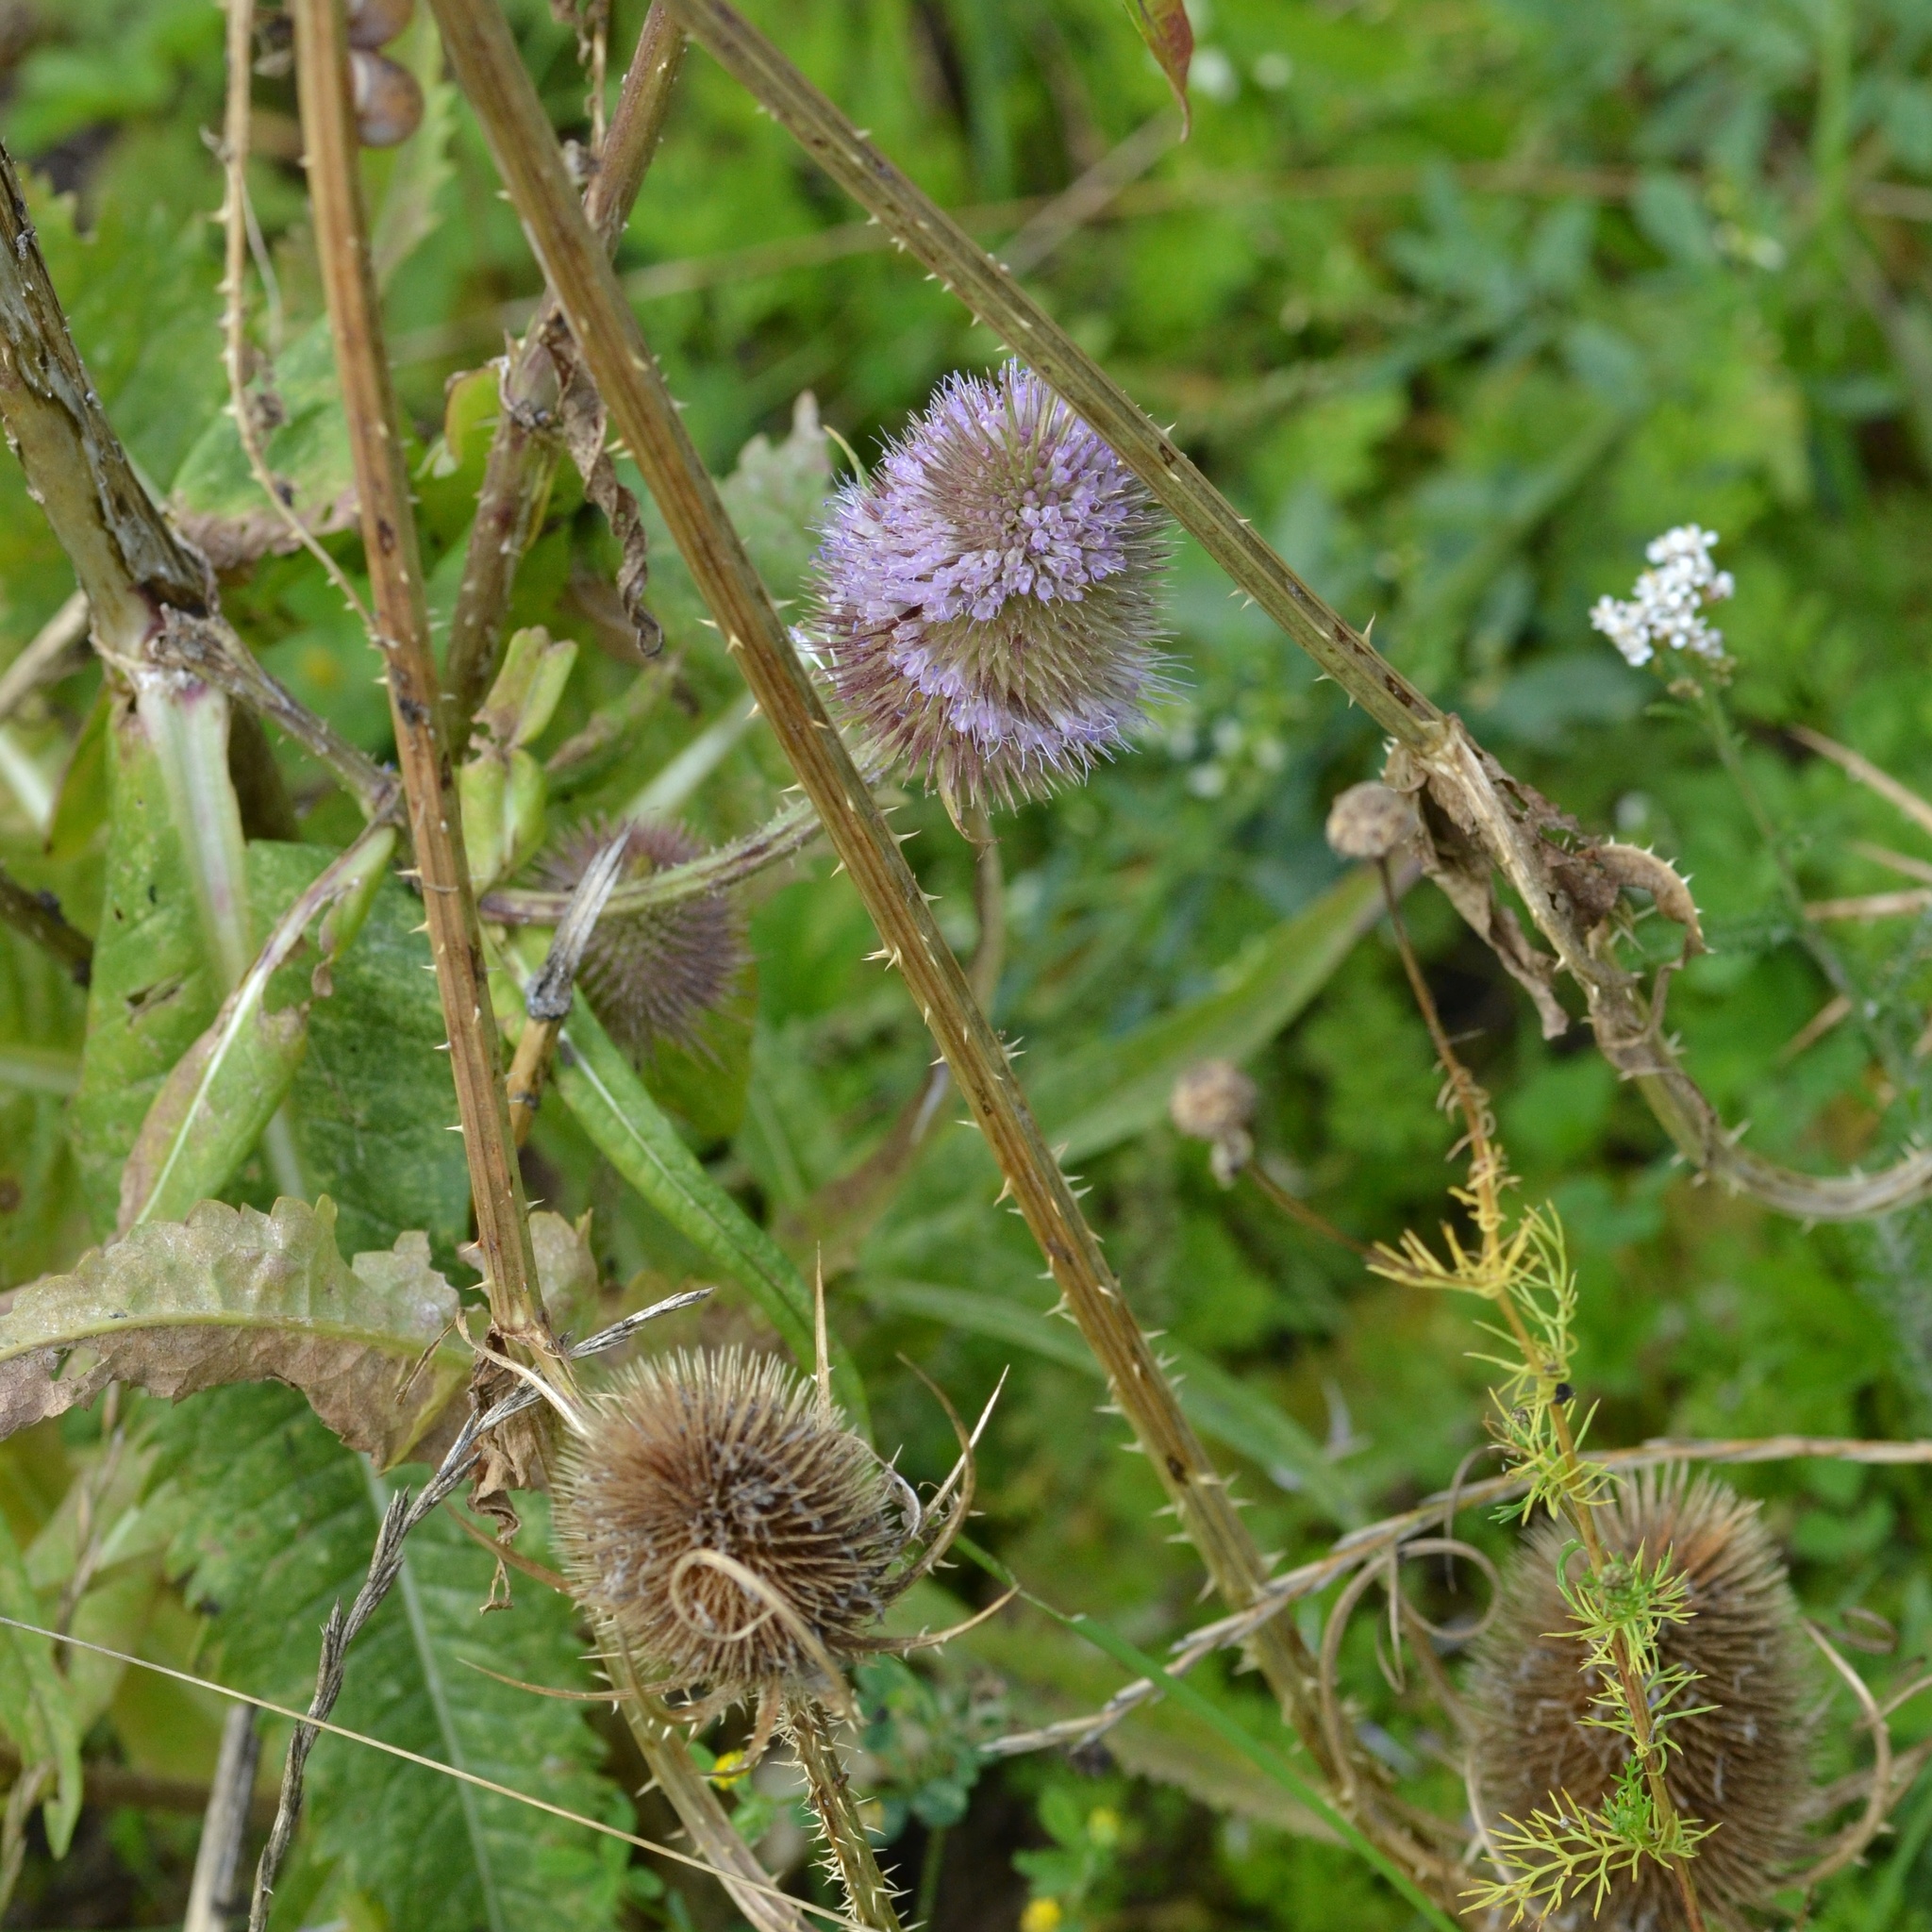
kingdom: Plantae
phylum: Tracheophyta
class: Magnoliopsida
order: Dipsacales
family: Caprifoliaceae
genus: Dipsacus
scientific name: Dipsacus fullonum
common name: Teasel
